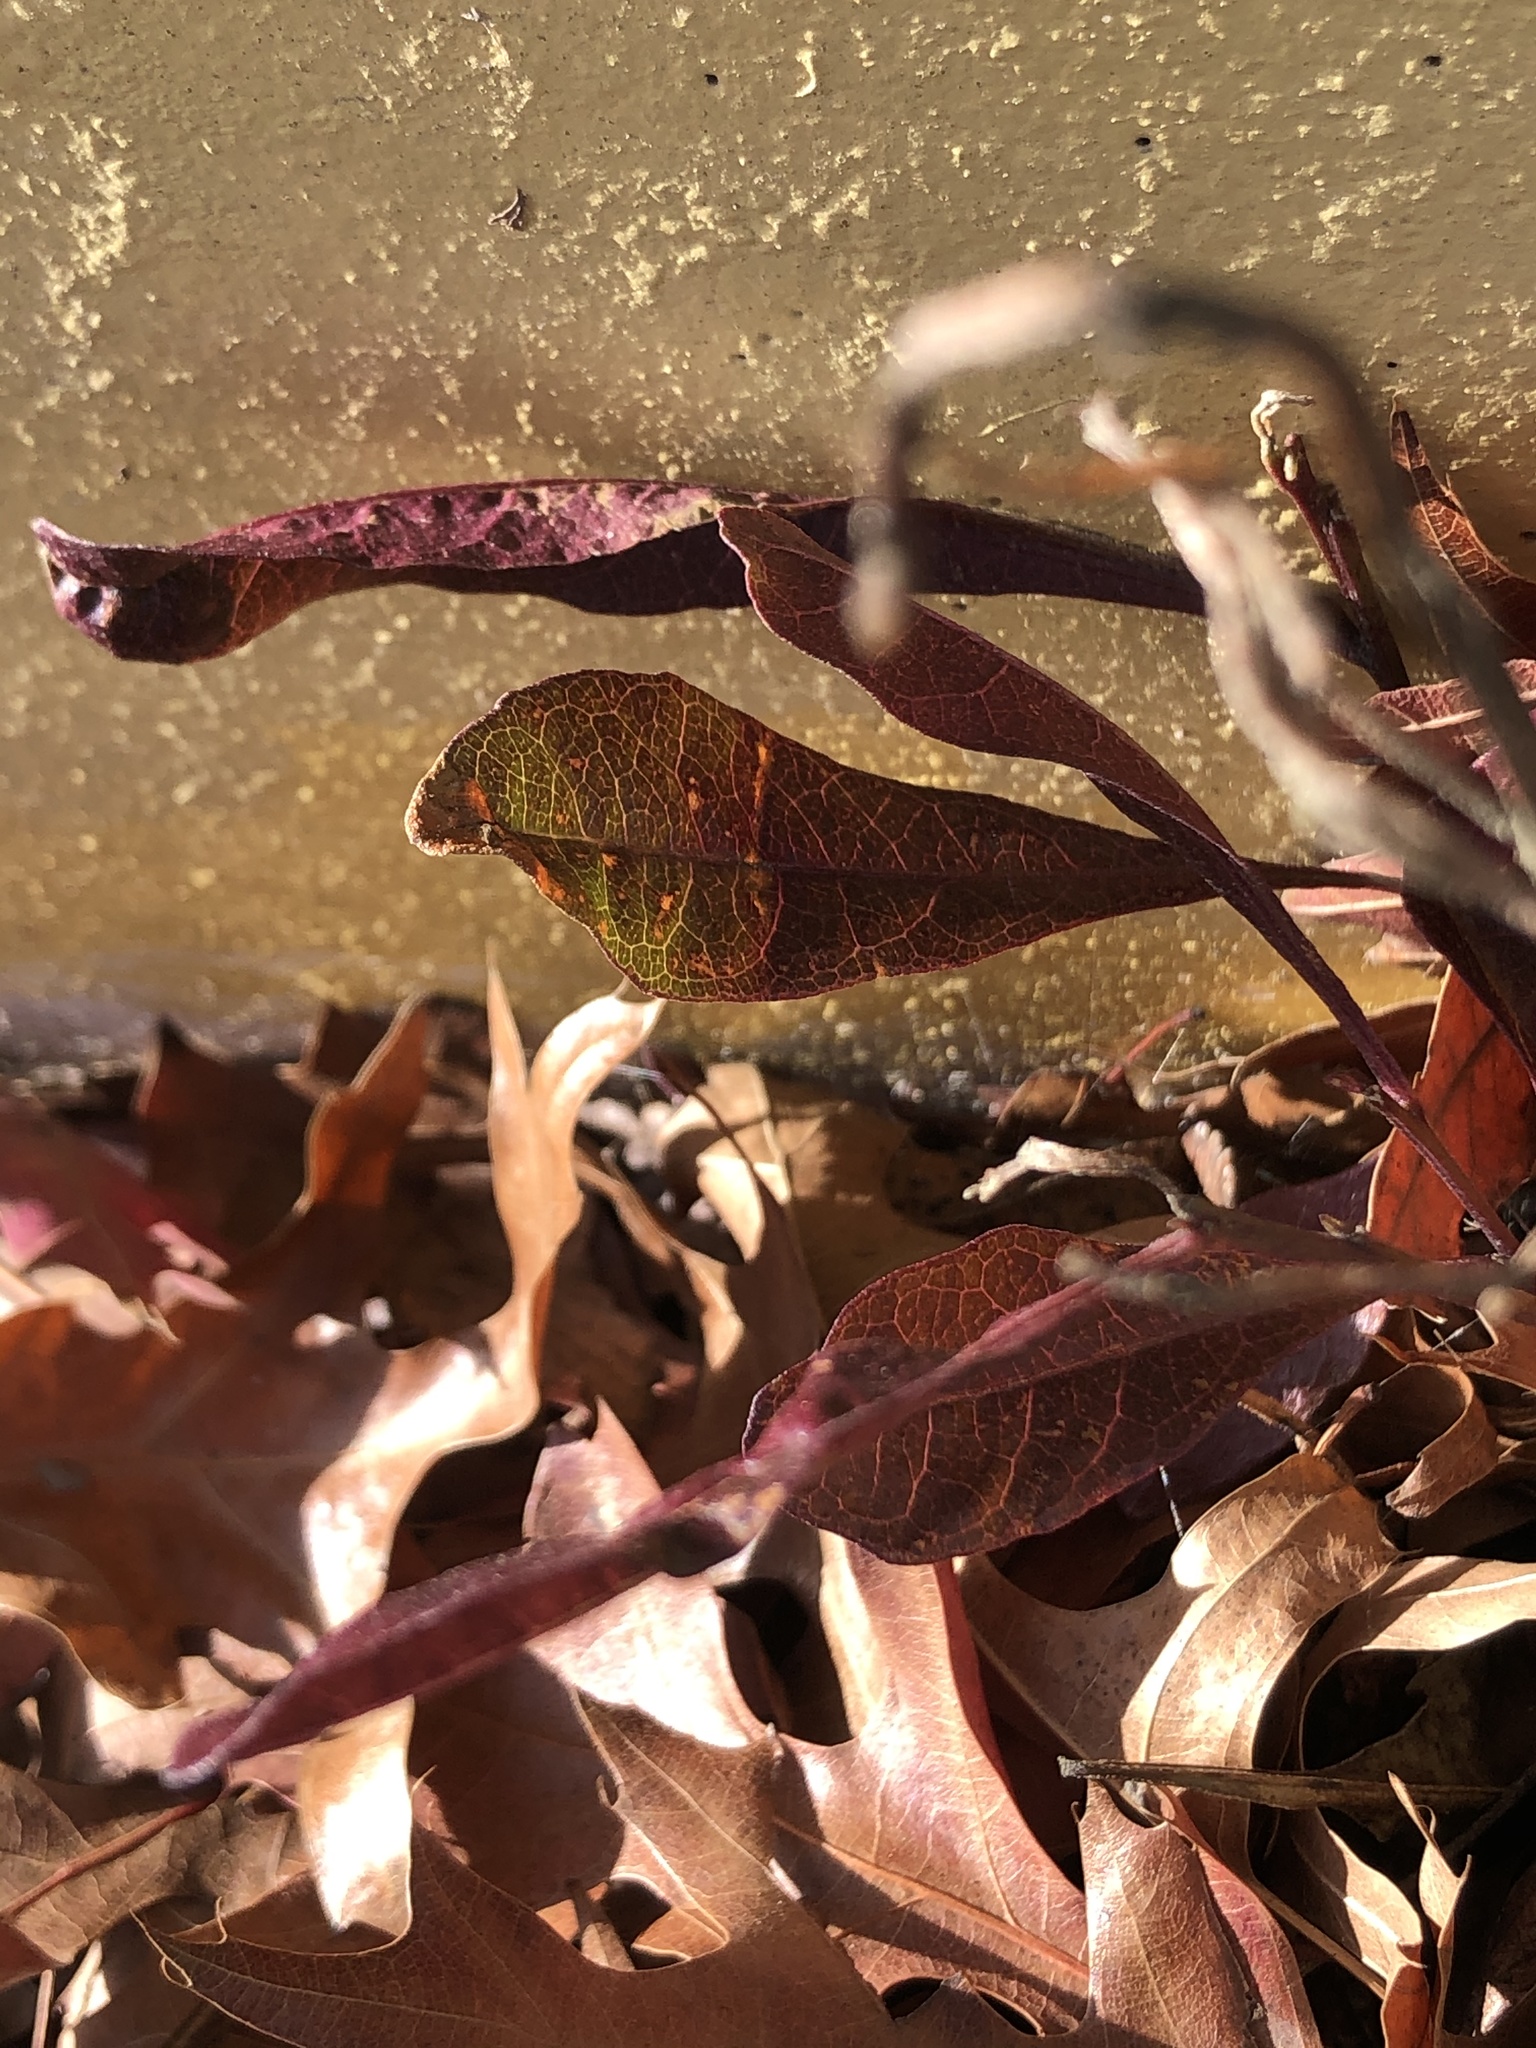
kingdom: Plantae
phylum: Tracheophyta
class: Magnoliopsida
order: Sapindales
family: Sapindaceae
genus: Dodonaea
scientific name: Dodonaea viscosa
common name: Hopbush
